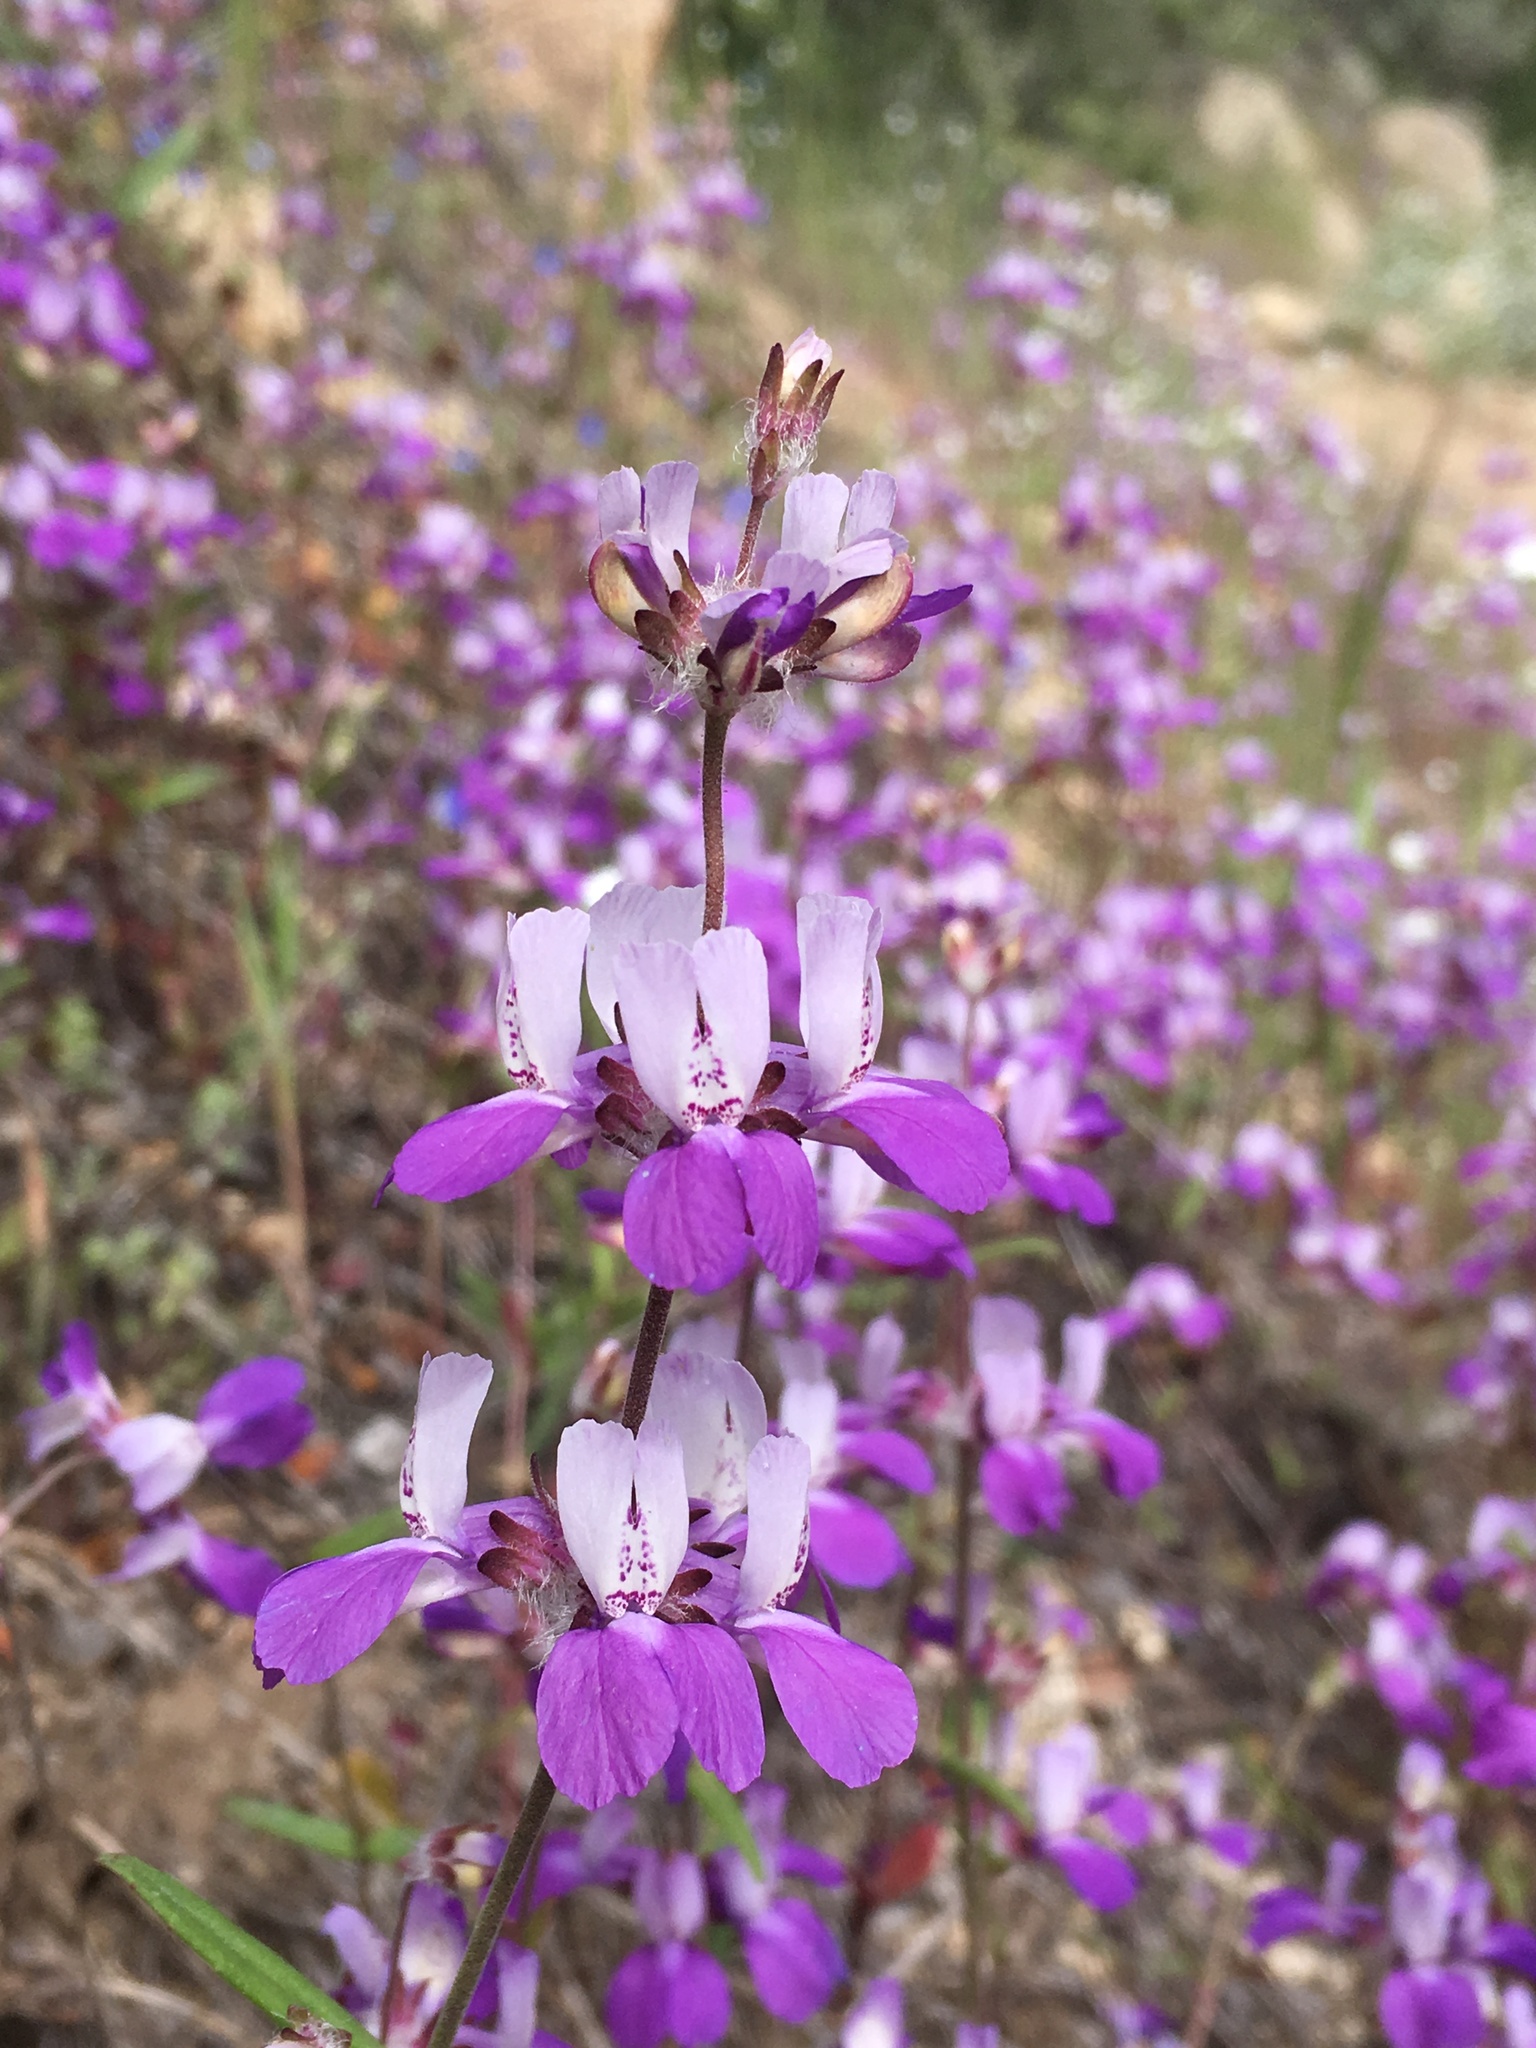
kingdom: Plantae
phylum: Tracheophyta
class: Magnoliopsida
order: Lamiales
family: Plantaginaceae
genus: Collinsia
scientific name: Collinsia heterophylla
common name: Chinese-houses
